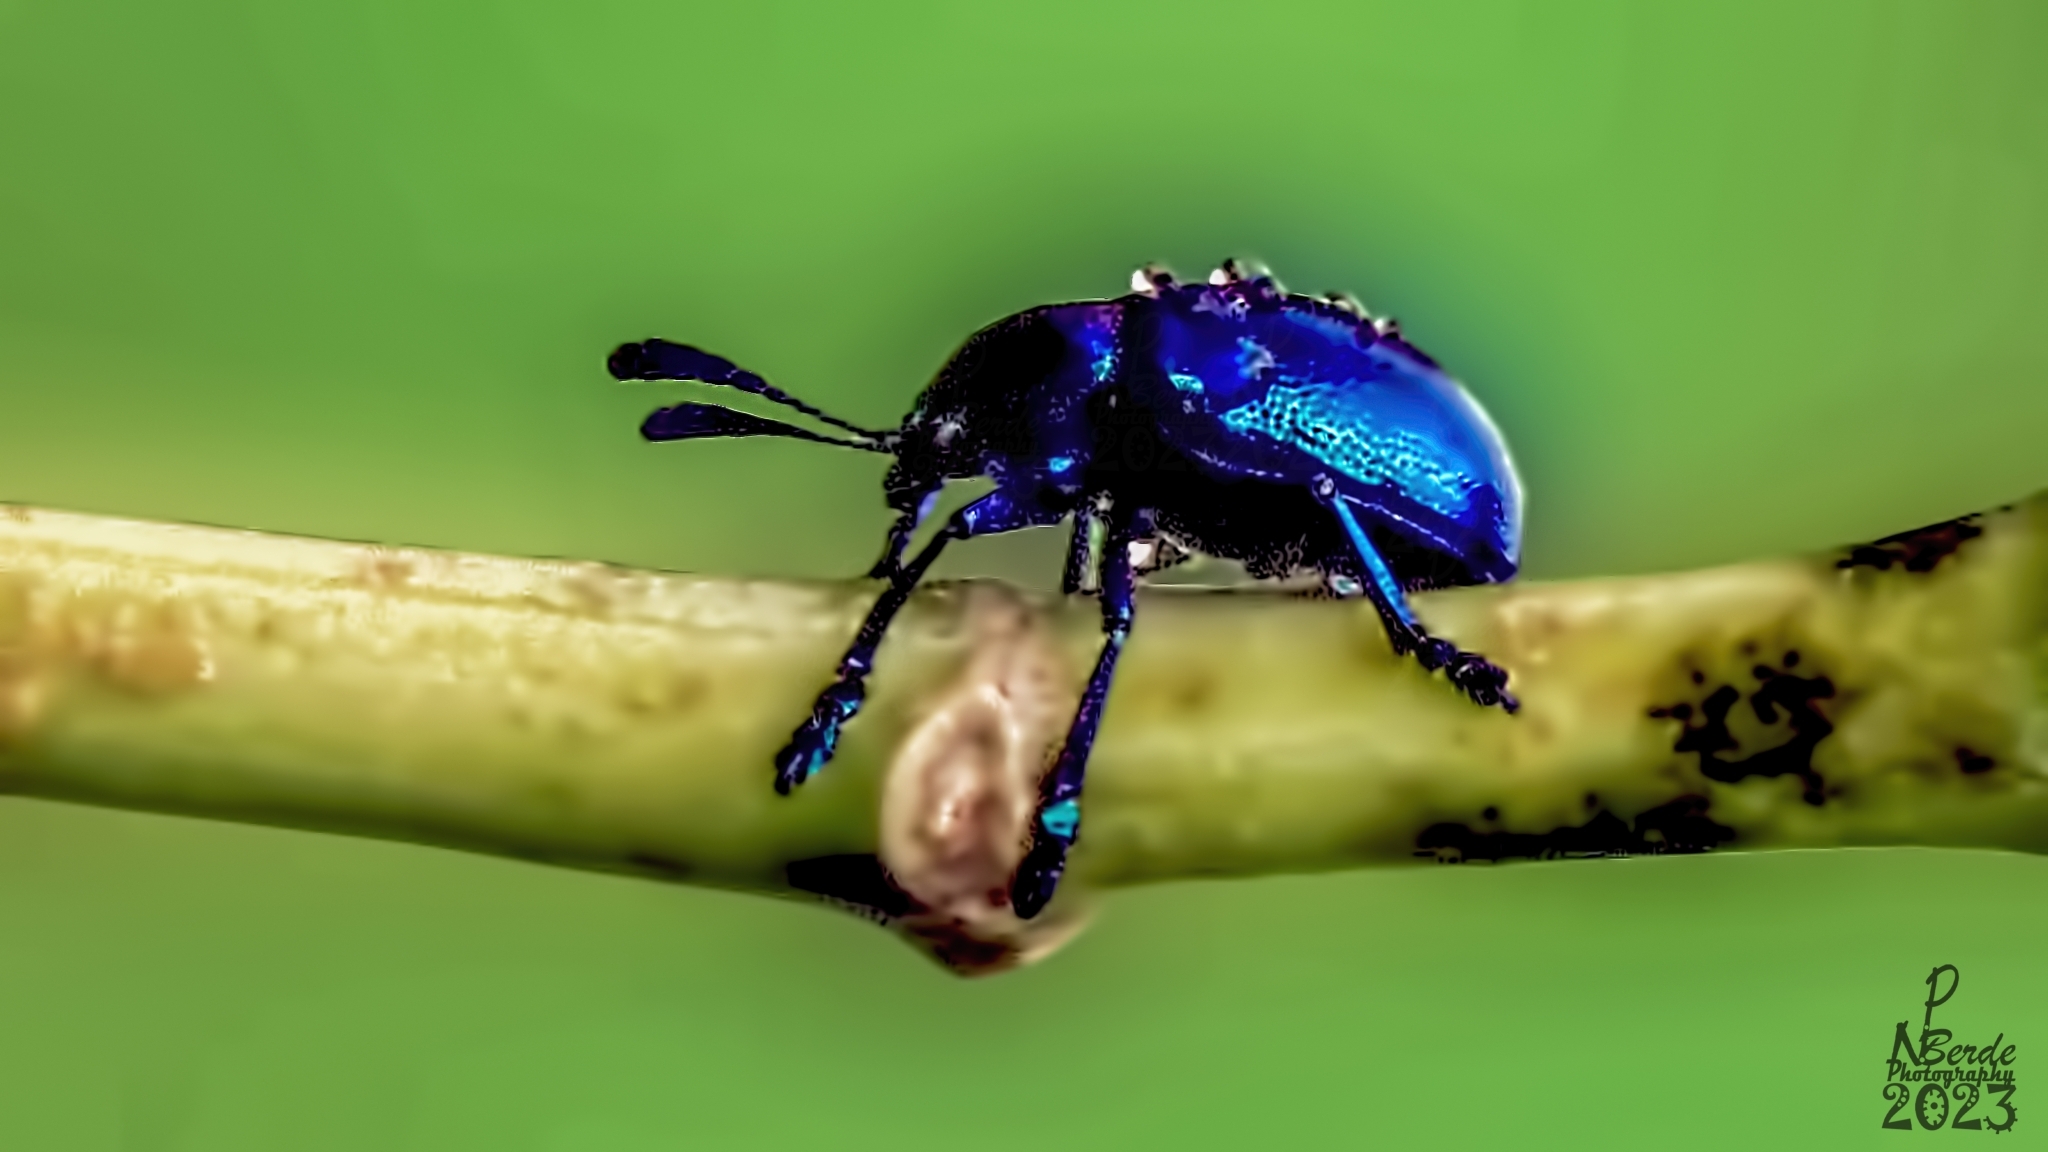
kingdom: Animalia
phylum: Arthropoda
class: Insecta
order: Coleoptera
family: Chrysomelidae
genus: Platycorynus
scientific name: Platycorynus
